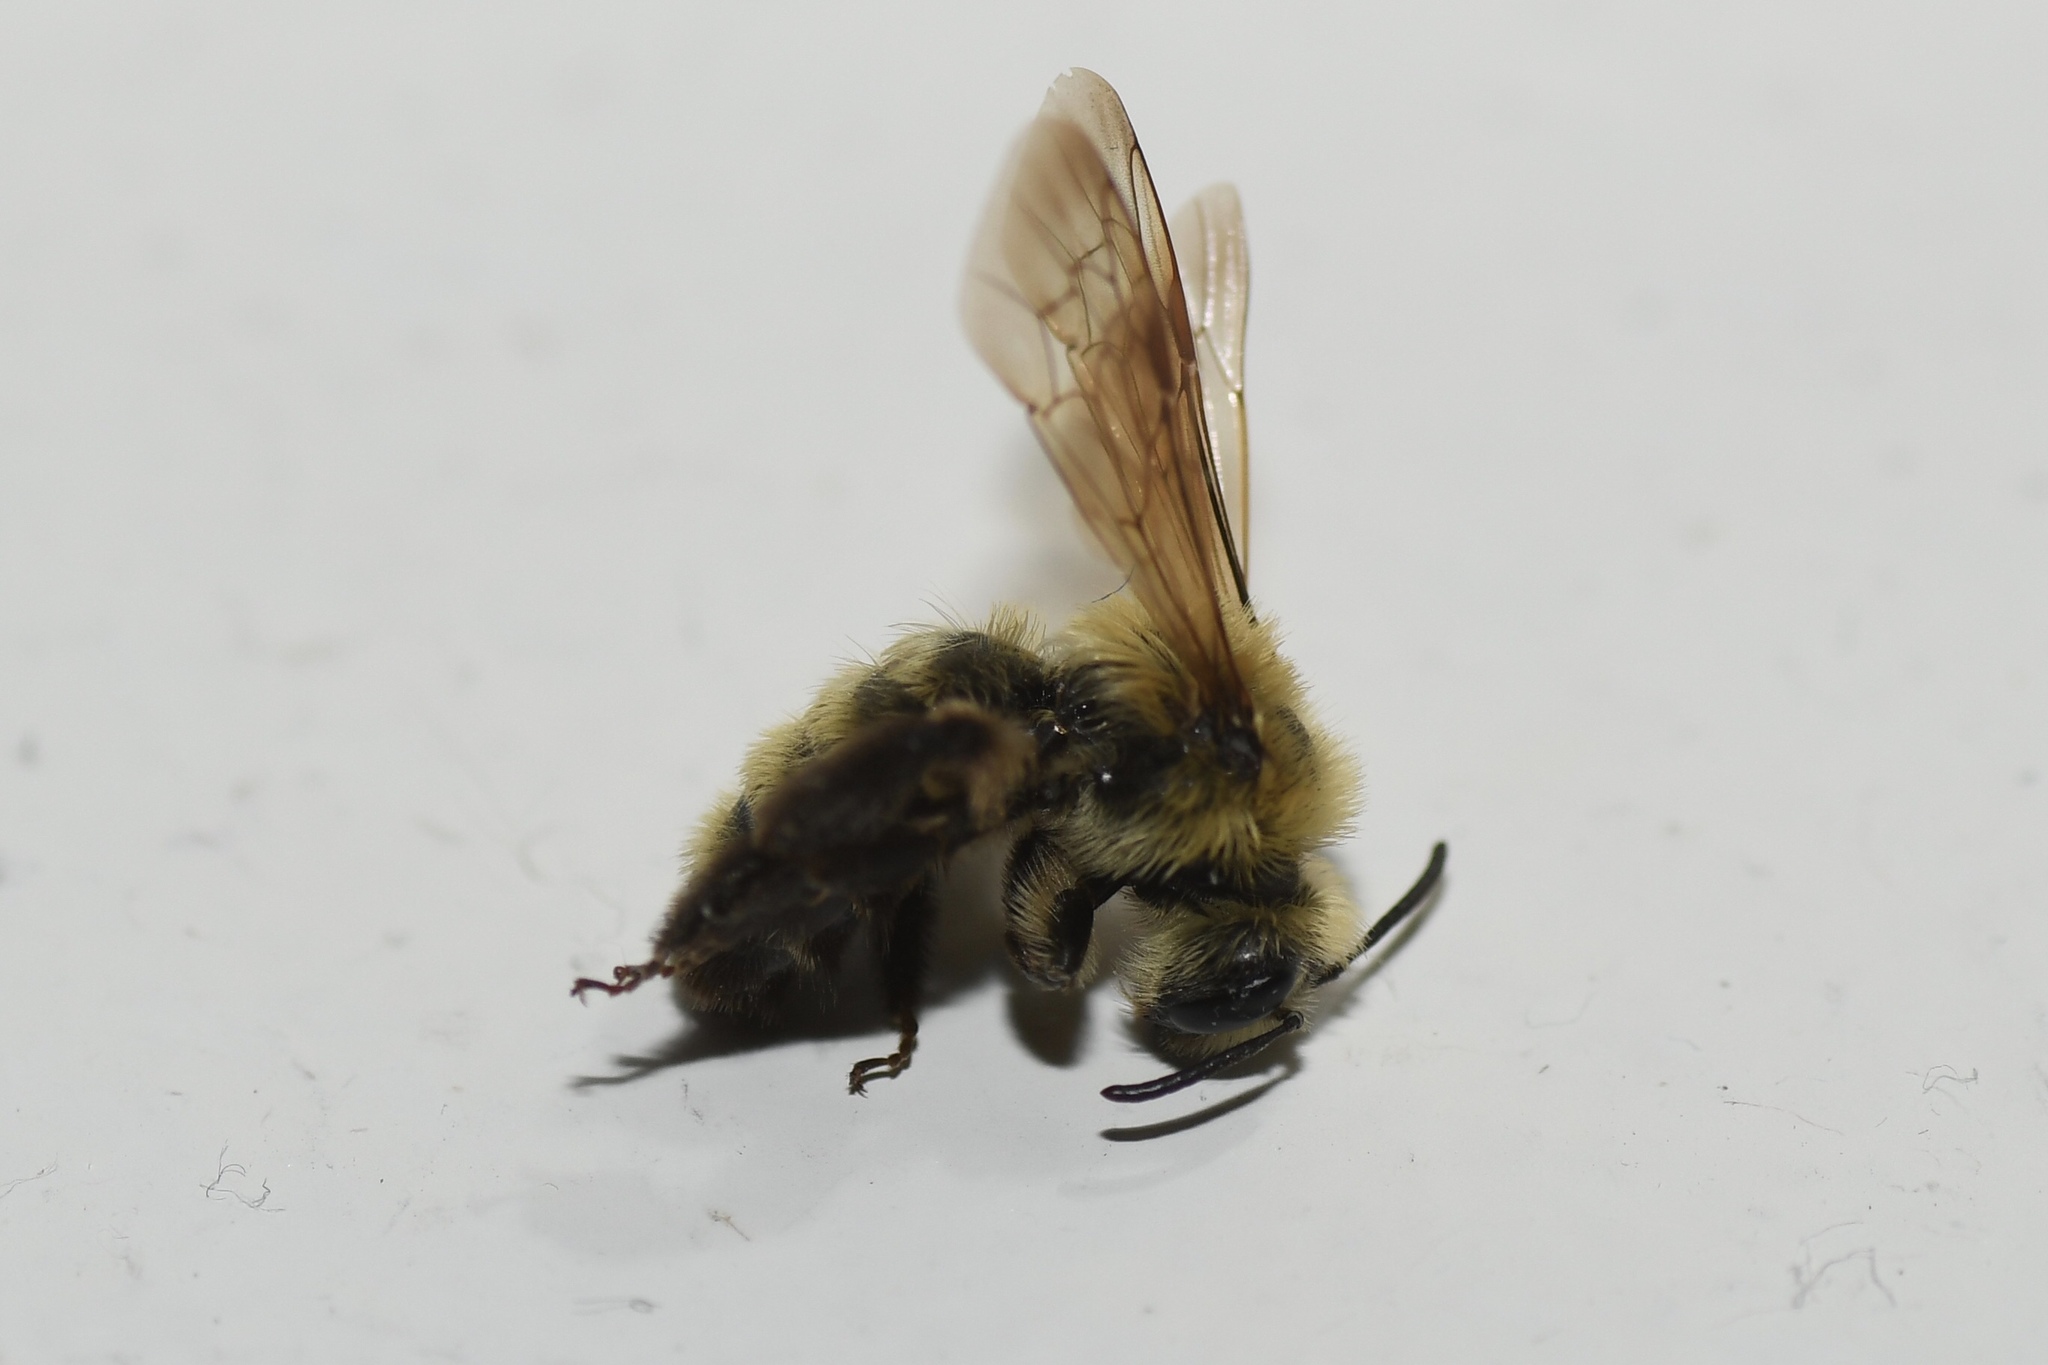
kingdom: Animalia
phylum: Arthropoda
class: Insecta
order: Hymenoptera
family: Andrenidae
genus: Andrena
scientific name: Andrena hirticincta
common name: Hairy-banded mining bee
